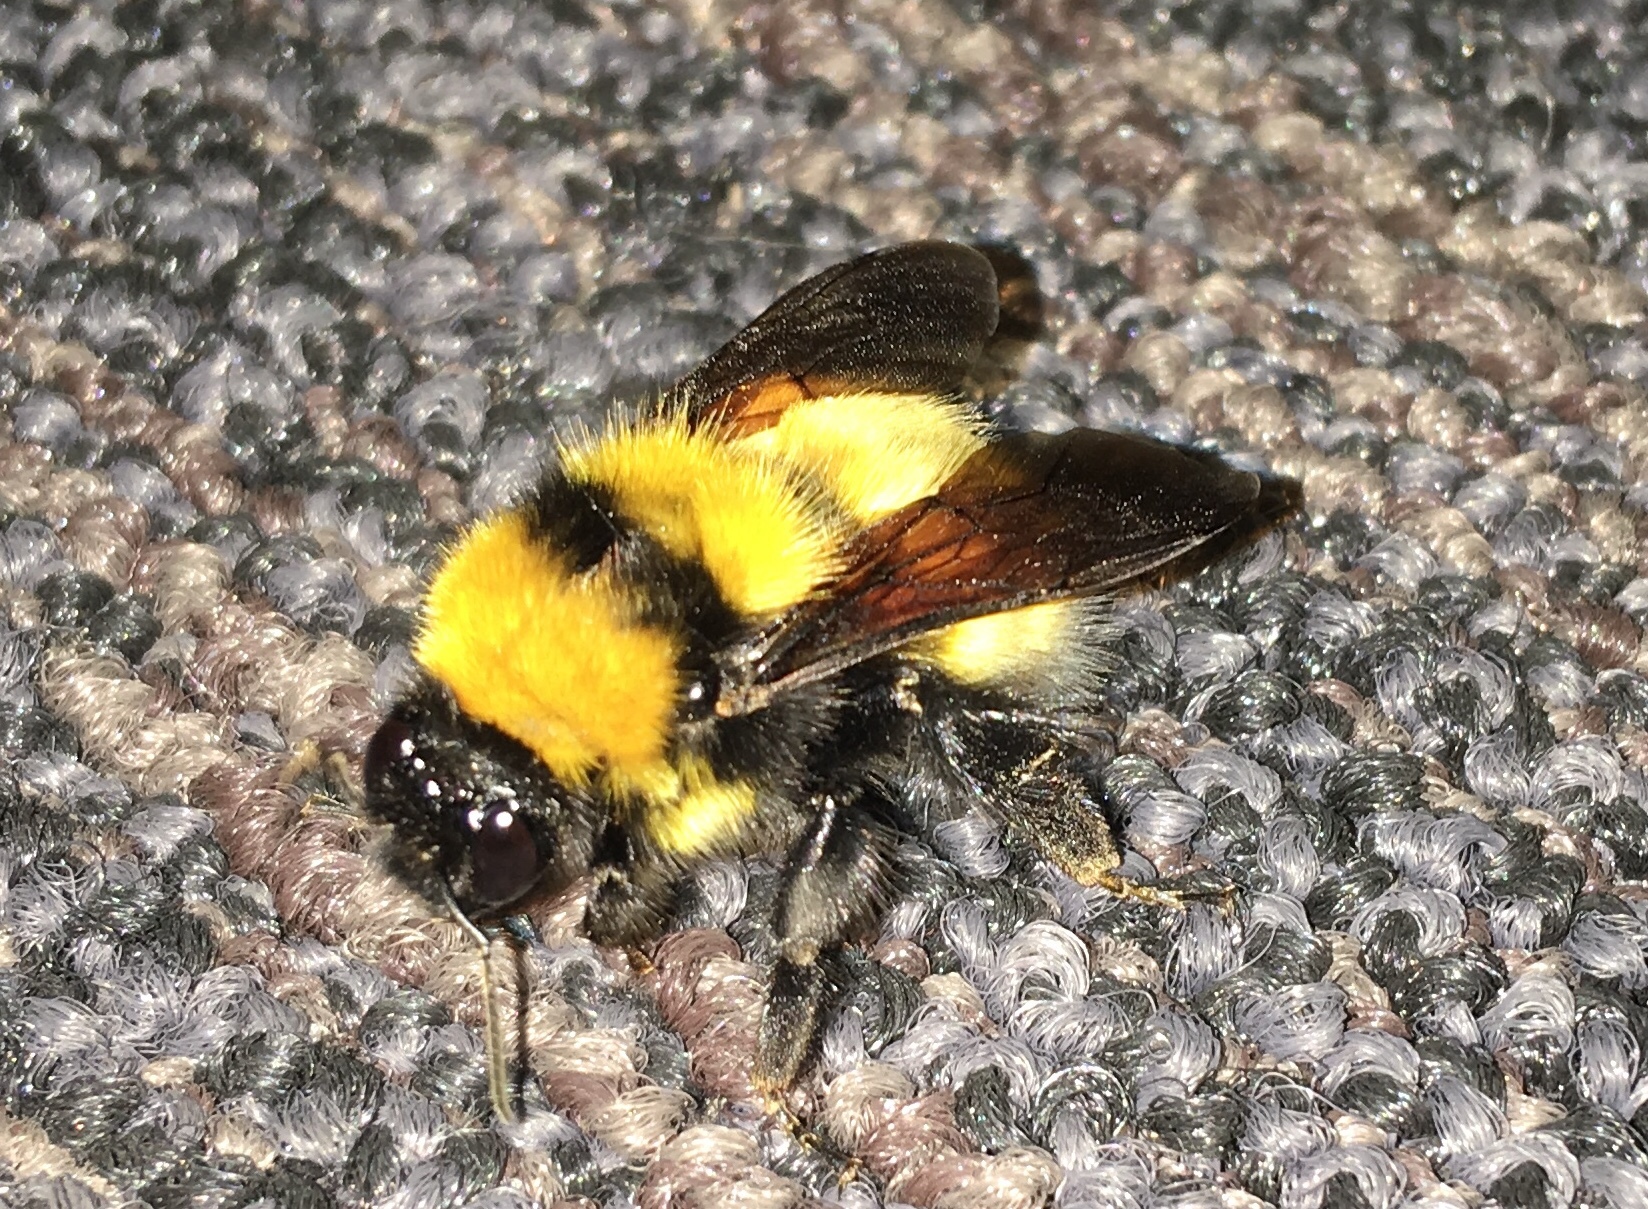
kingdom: Animalia
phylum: Arthropoda
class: Insecta
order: Hymenoptera
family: Apidae
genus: Bombus
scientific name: Bombus hortulanus
